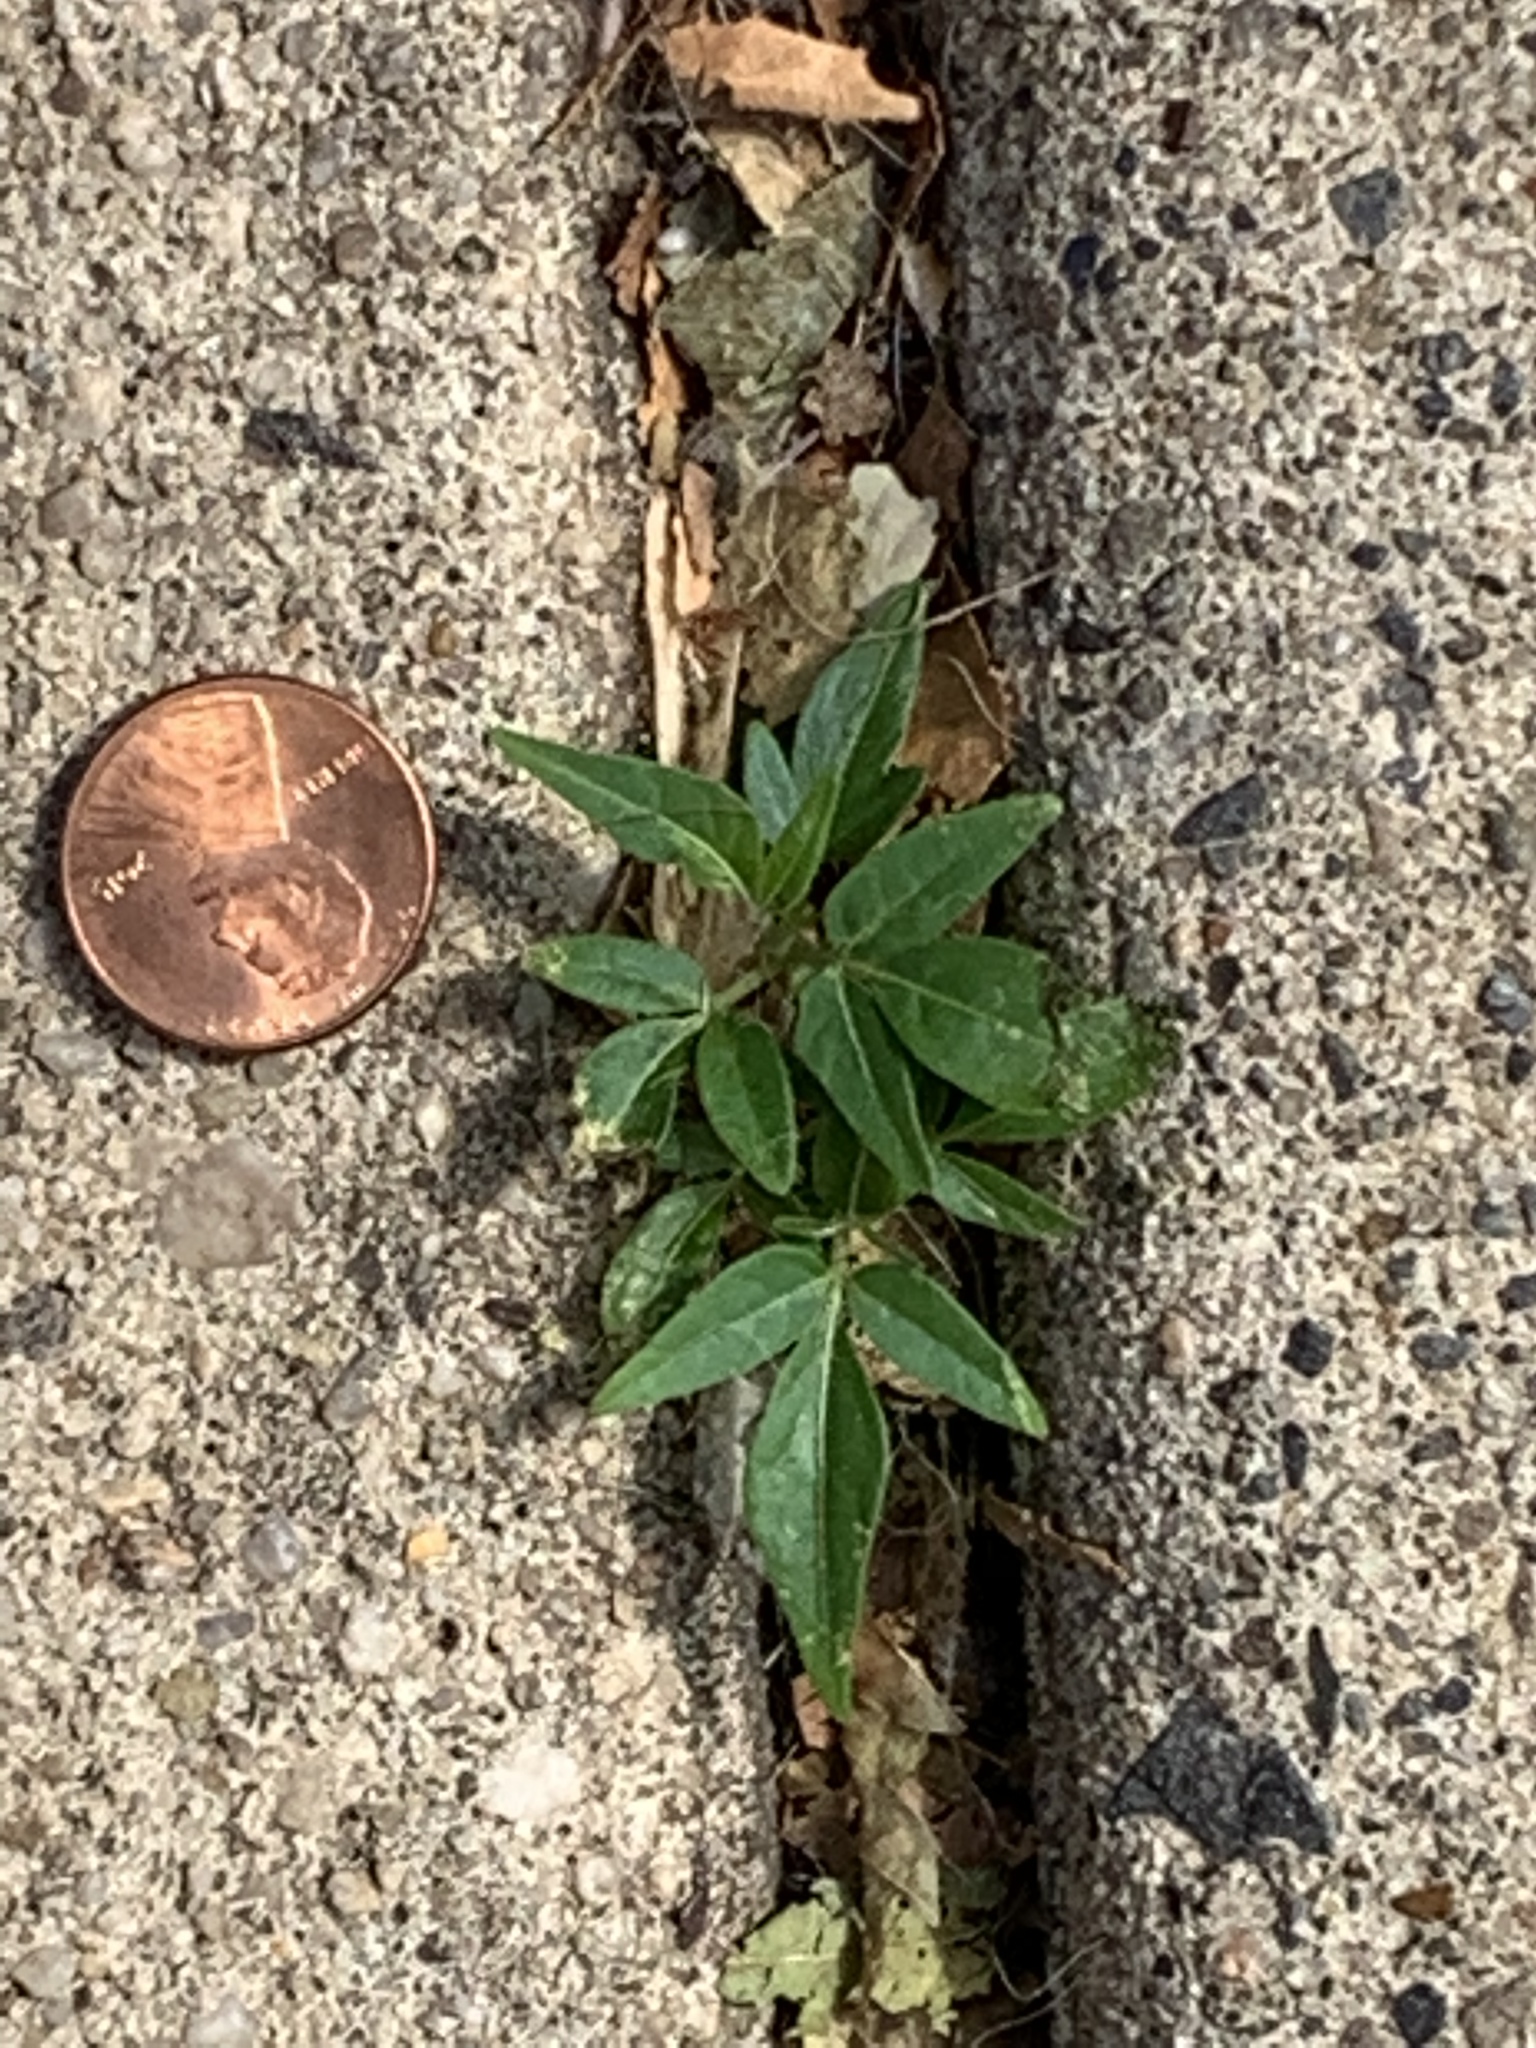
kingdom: Plantae
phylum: Tracheophyta
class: Magnoliopsida
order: Sapindales
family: Simaroubaceae
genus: Ailanthus
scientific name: Ailanthus altissima
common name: Tree-of-heaven
